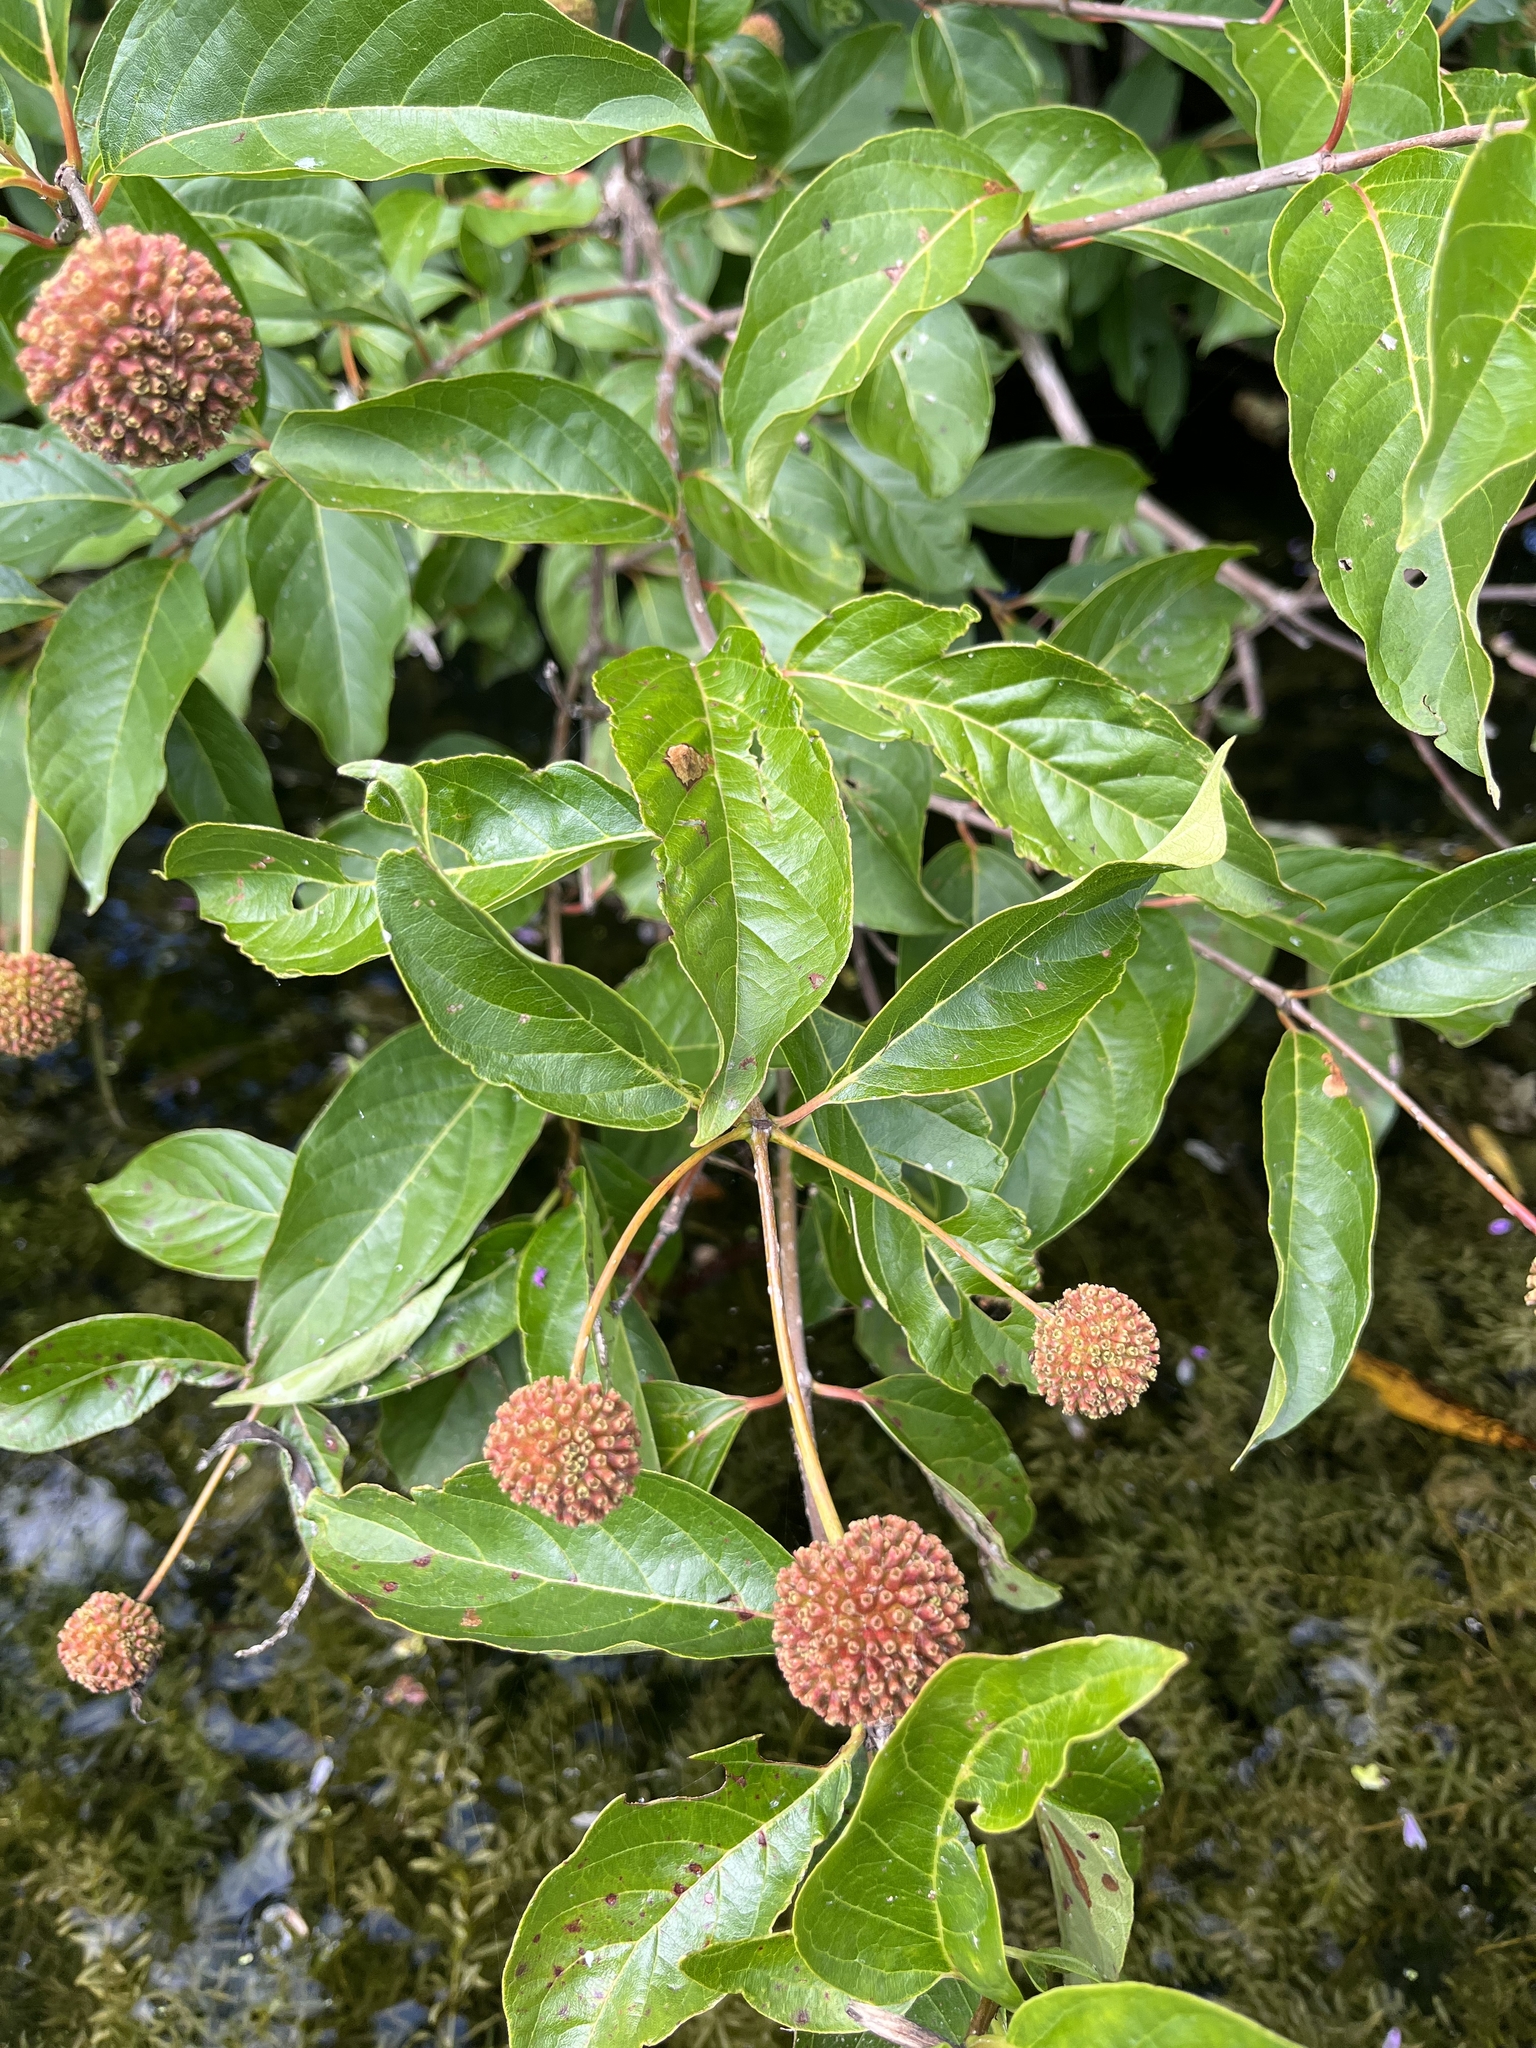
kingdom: Plantae
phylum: Tracheophyta
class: Magnoliopsida
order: Gentianales
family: Rubiaceae
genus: Cephalanthus
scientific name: Cephalanthus occidentalis
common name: Button-willow
